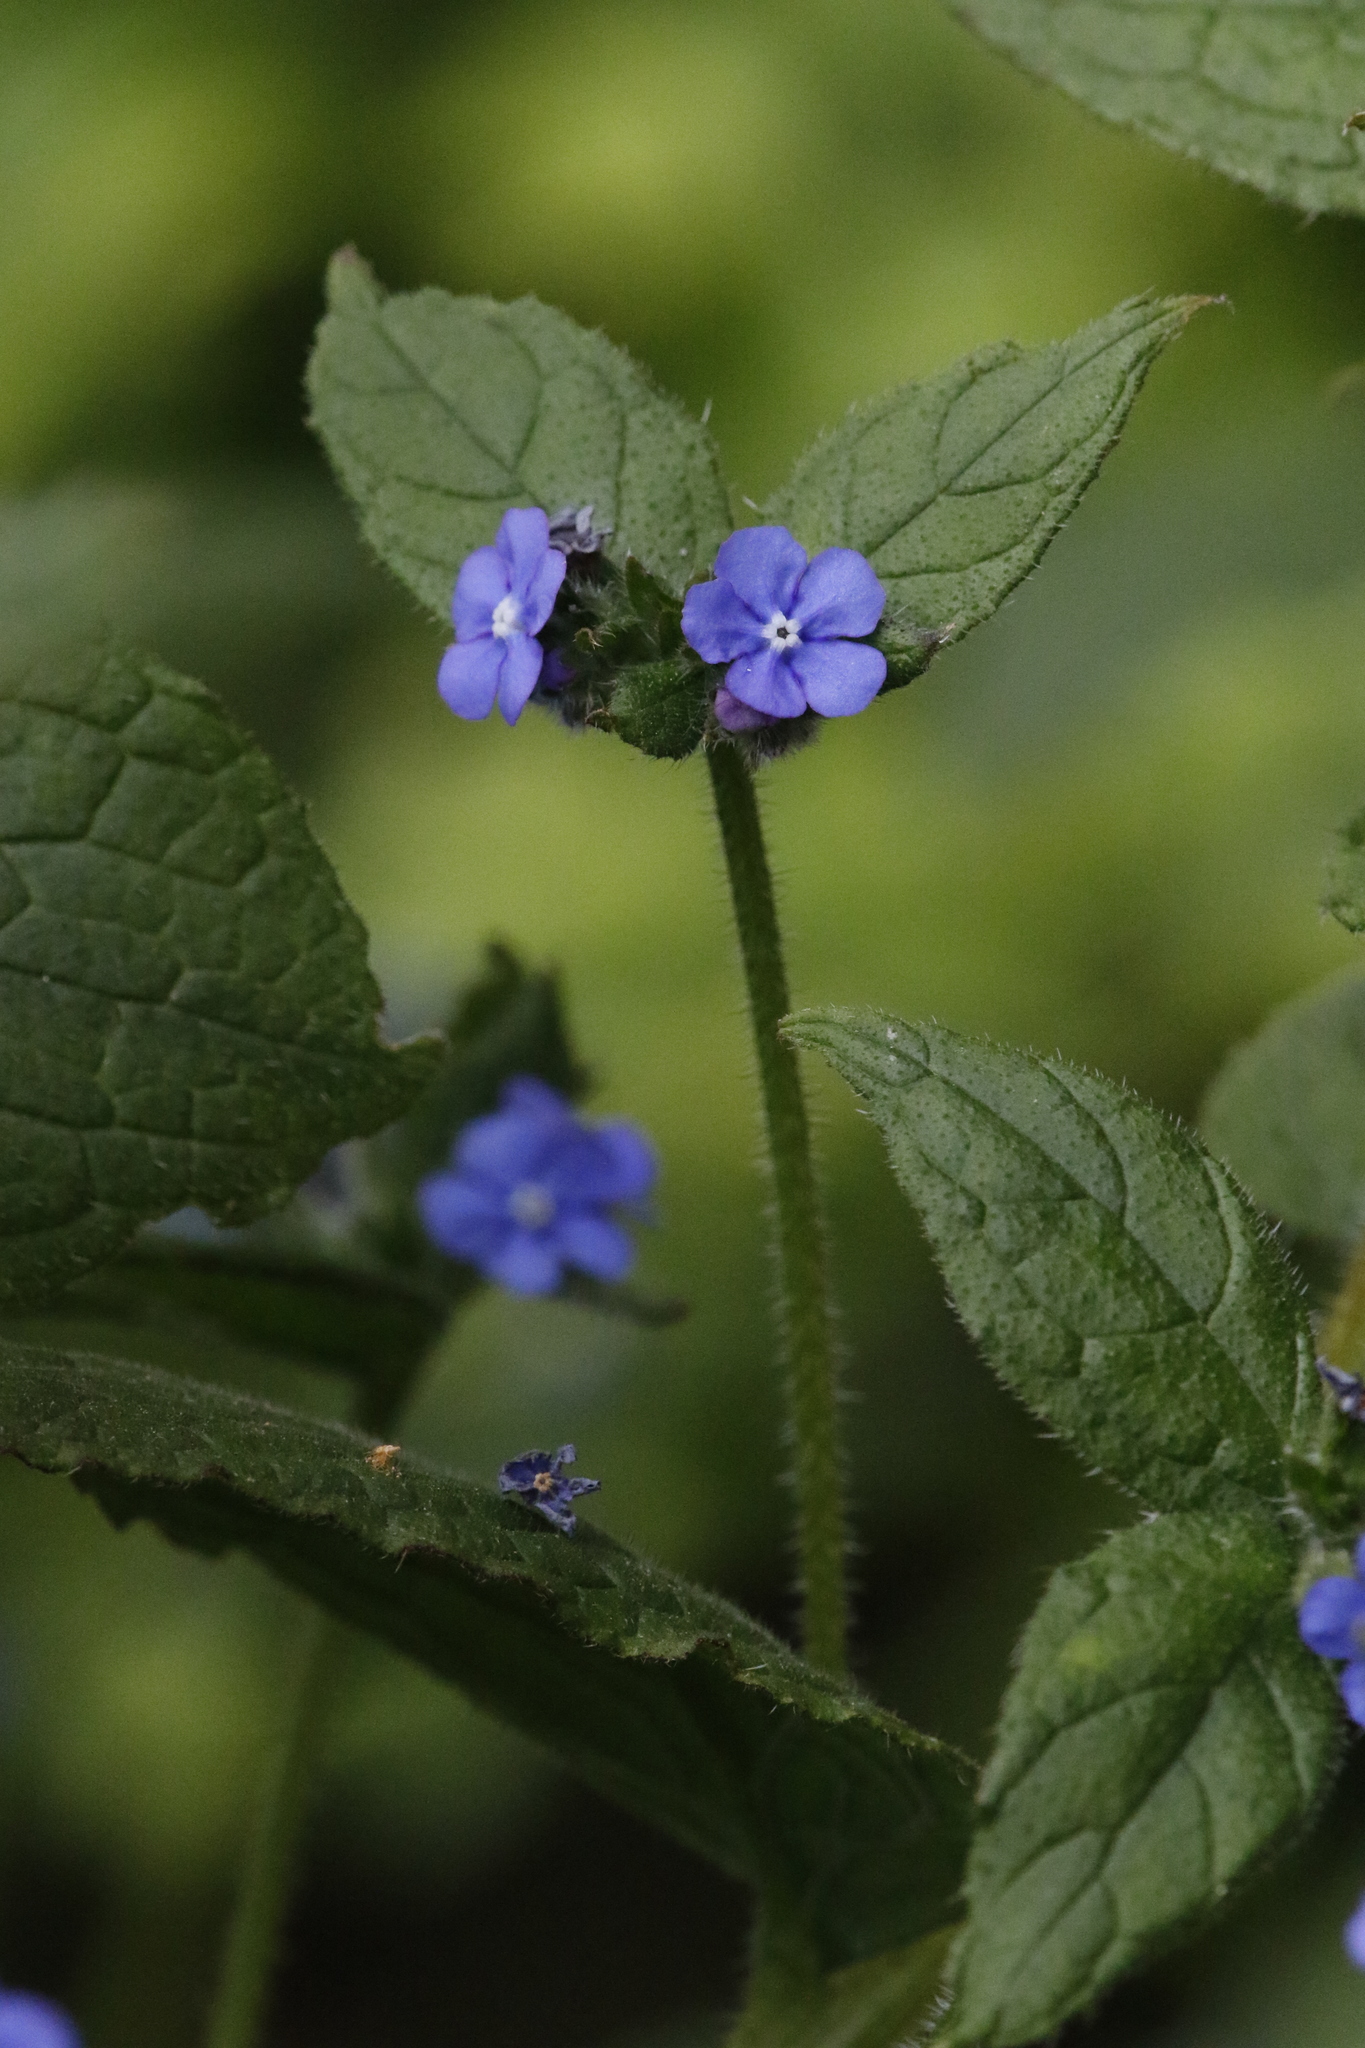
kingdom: Plantae
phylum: Tracheophyta
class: Magnoliopsida
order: Boraginales
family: Boraginaceae
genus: Pentaglottis
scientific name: Pentaglottis sempervirens
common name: Green alkanet
